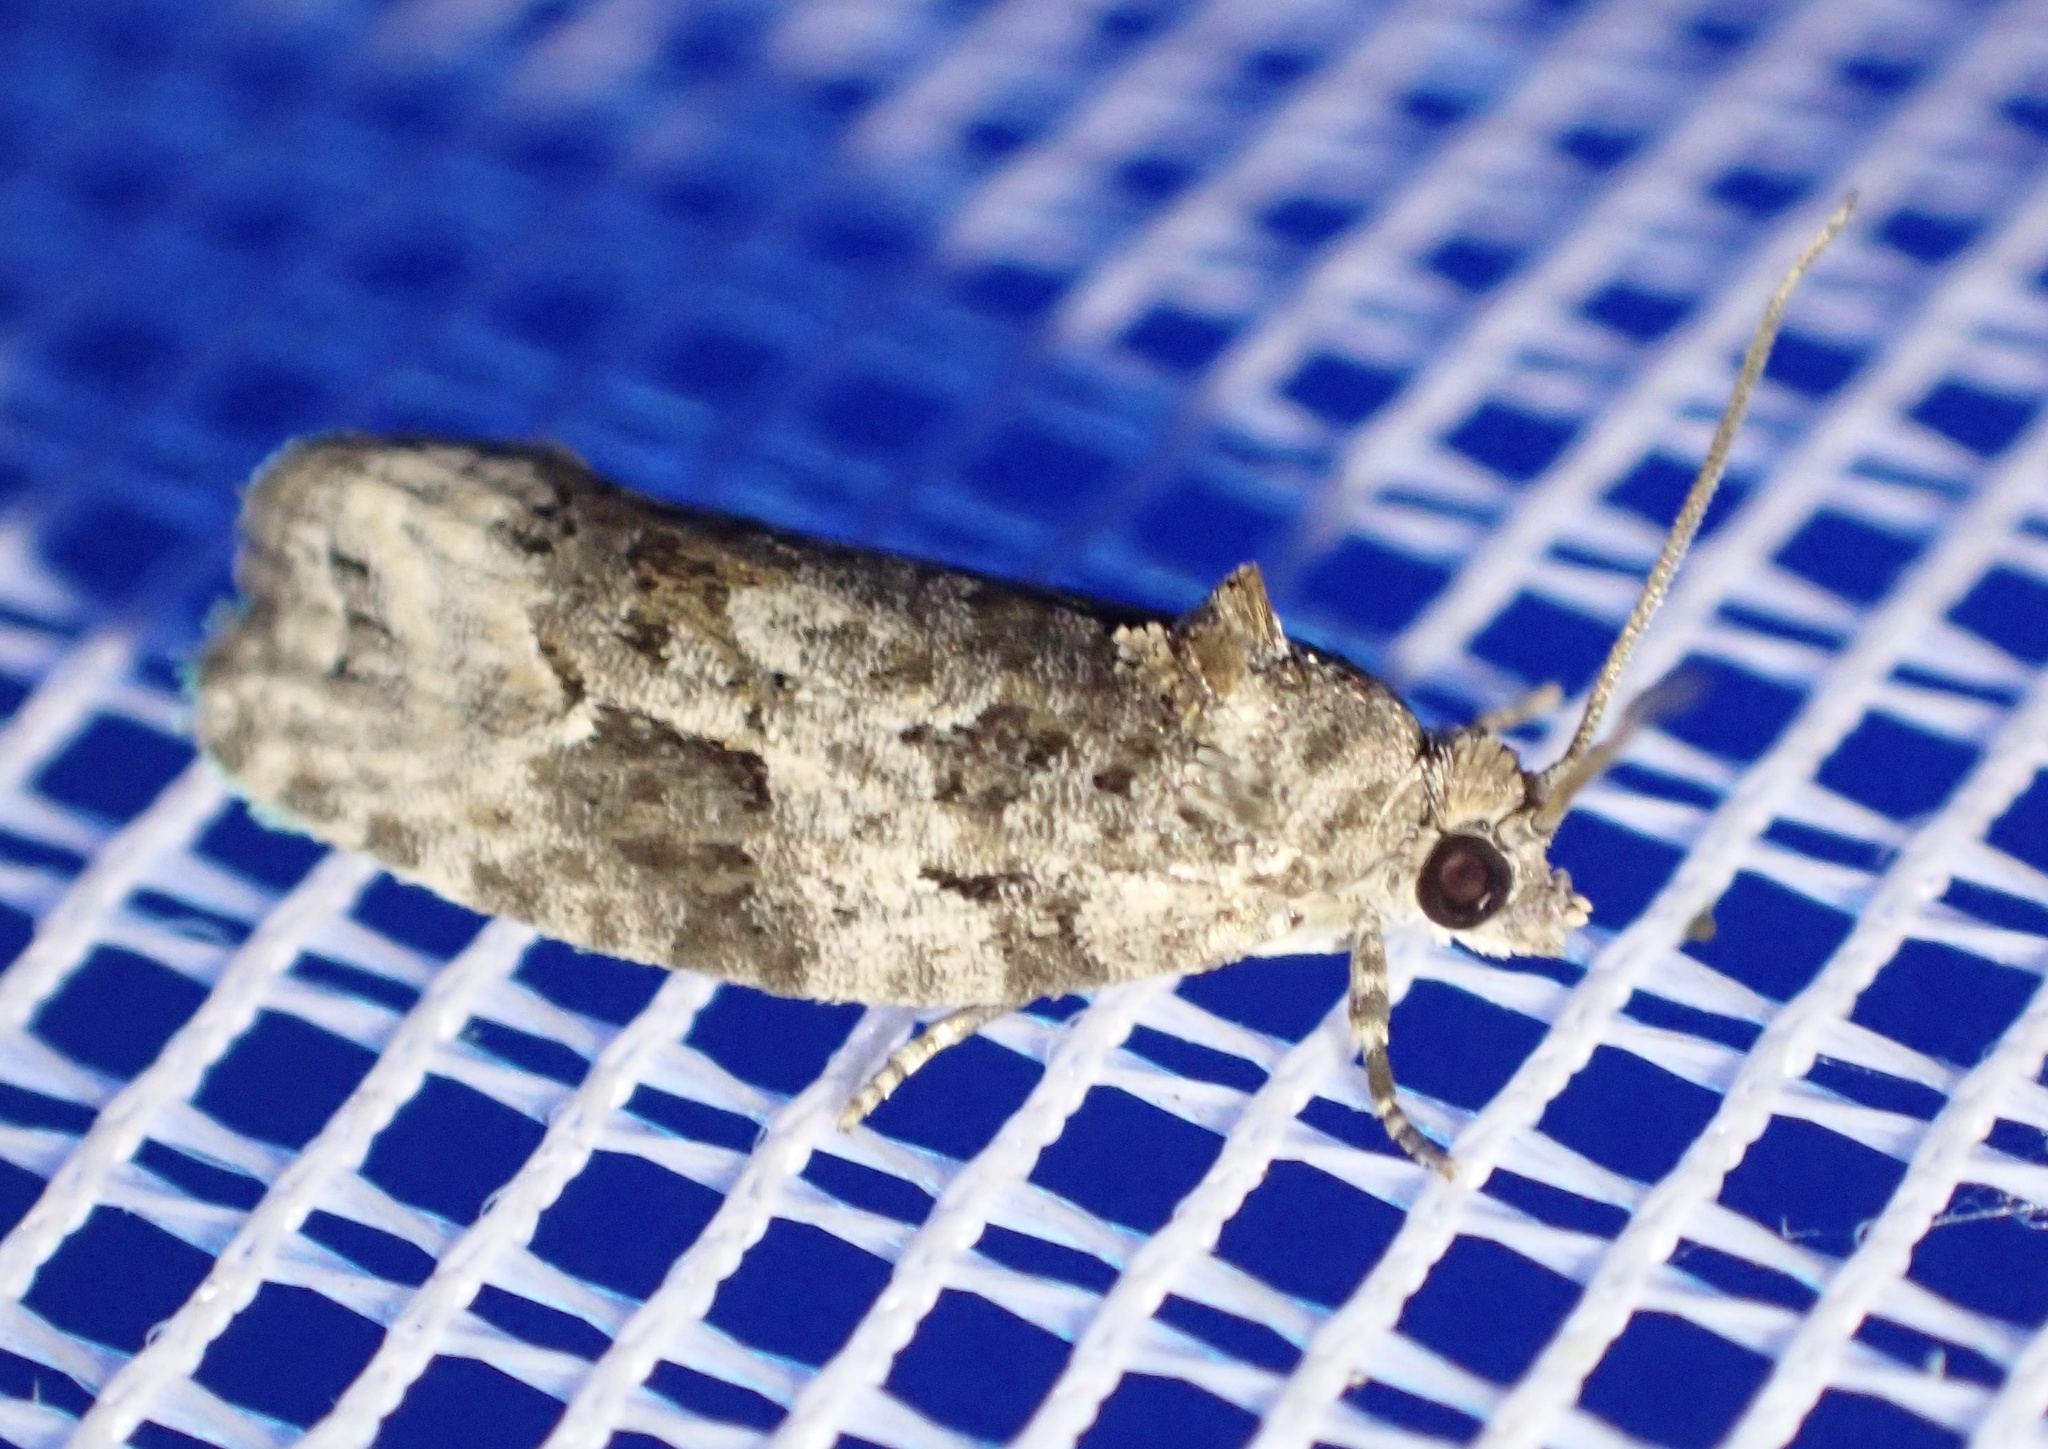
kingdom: Animalia
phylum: Arthropoda
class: Insecta
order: Lepidoptera
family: Tortricidae
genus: Apotomis
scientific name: Apotomis lineana
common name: Willow marble
